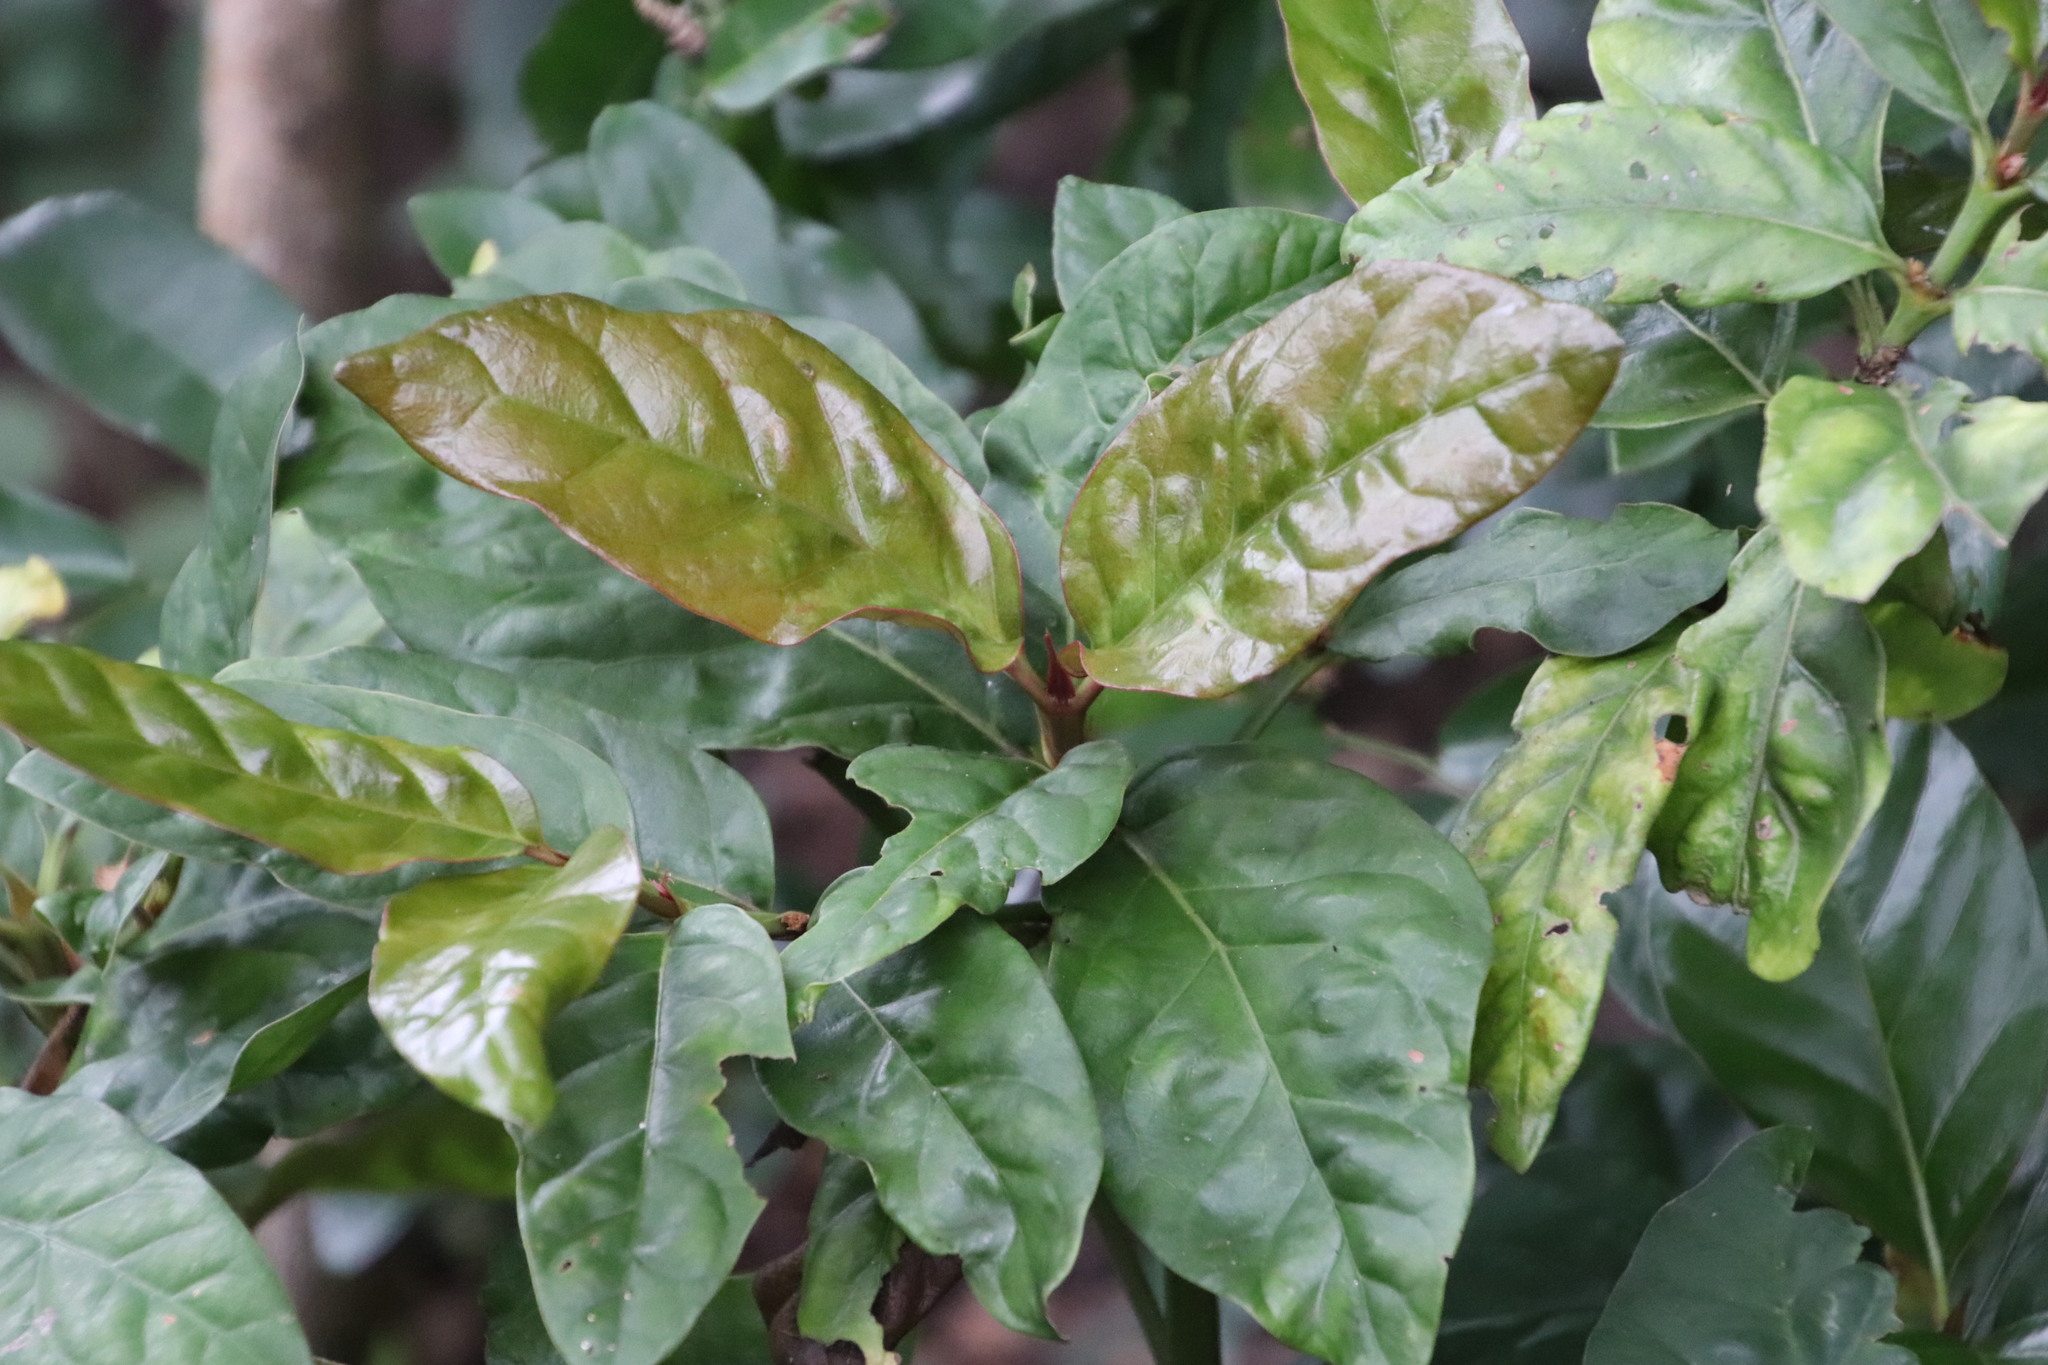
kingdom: Plantae
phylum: Tracheophyta
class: Magnoliopsida
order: Gentianales
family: Rubiaceae
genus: Mitriostigma
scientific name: Mitriostigma axillare
